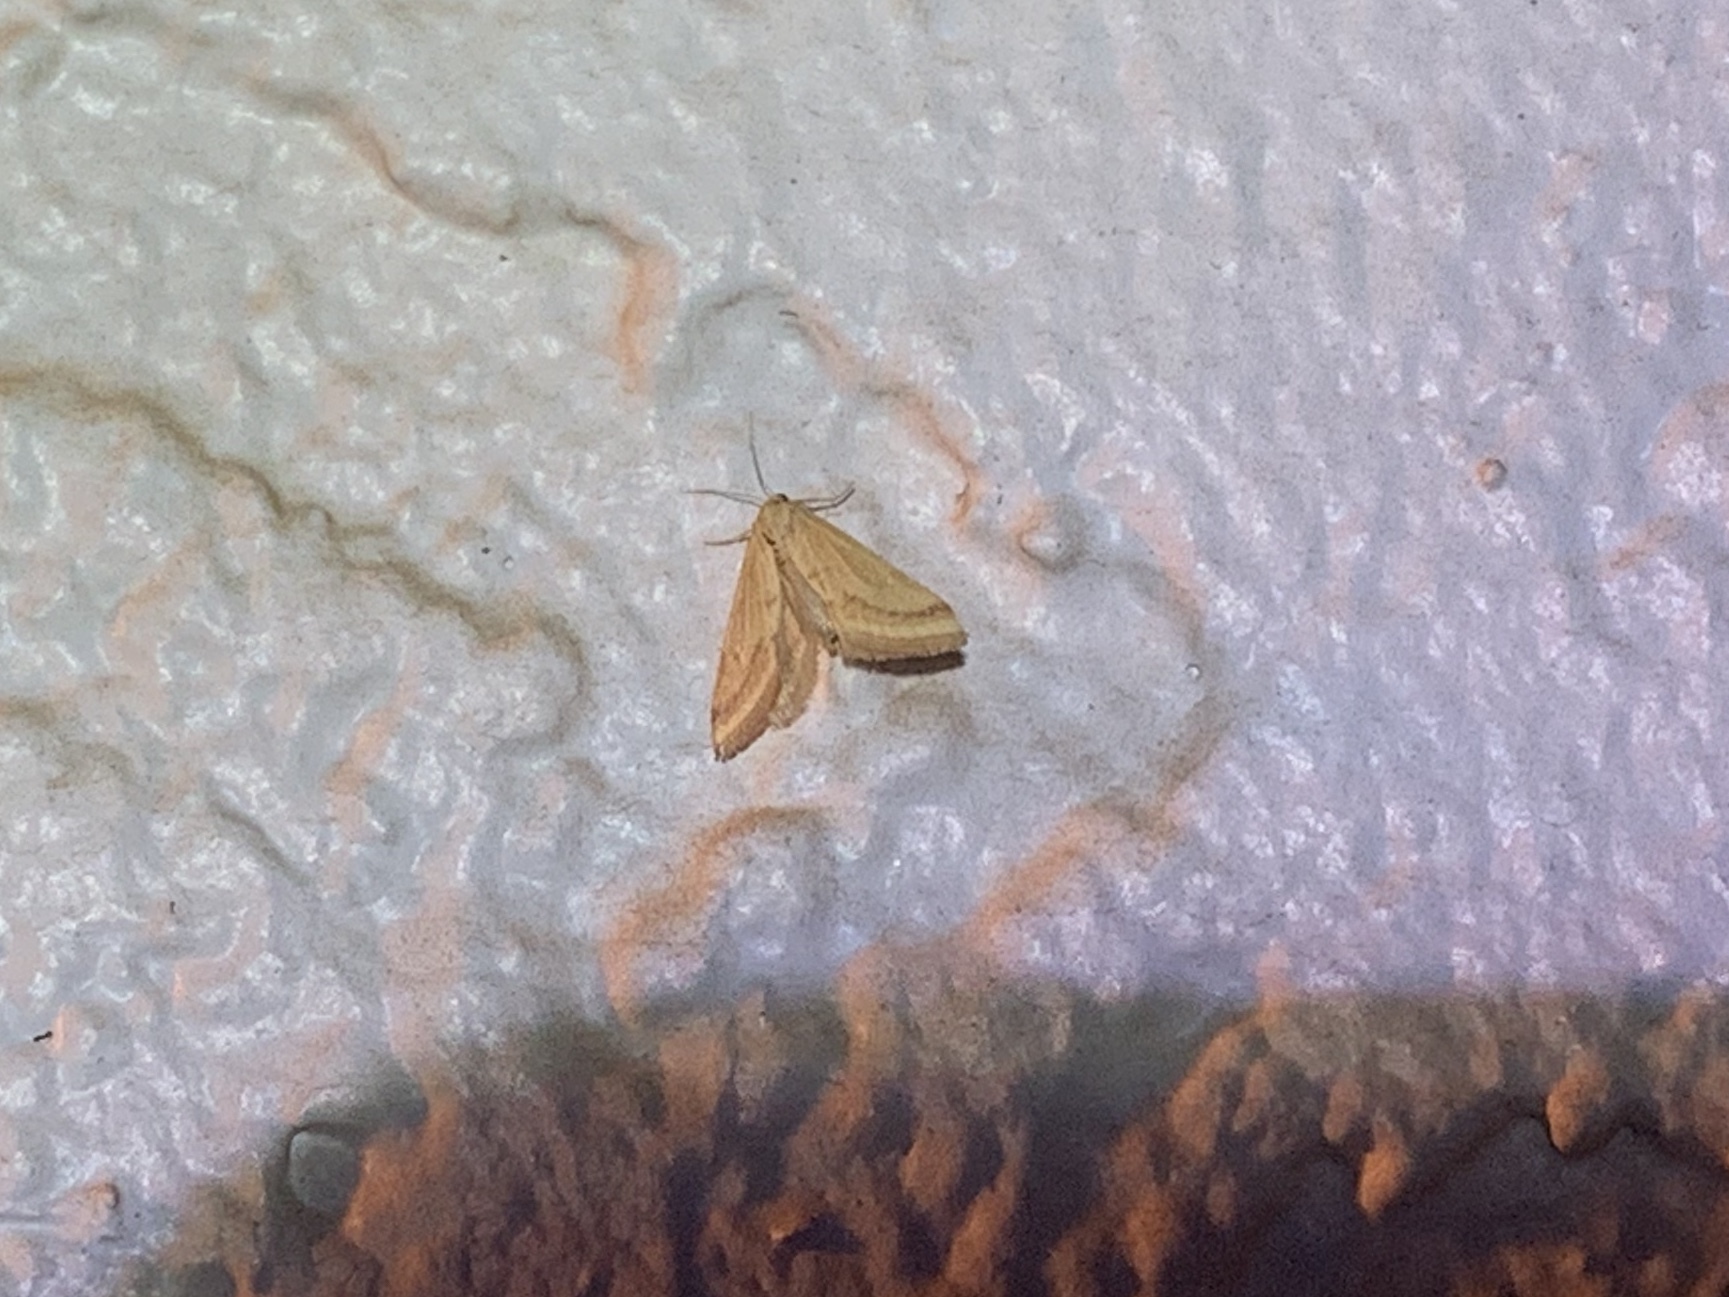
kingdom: Animalia
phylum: Arthropoda
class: Insecta
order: Lepidoptera
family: Crambidae
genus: Microtheoris
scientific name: Microtheoris ophionalis
